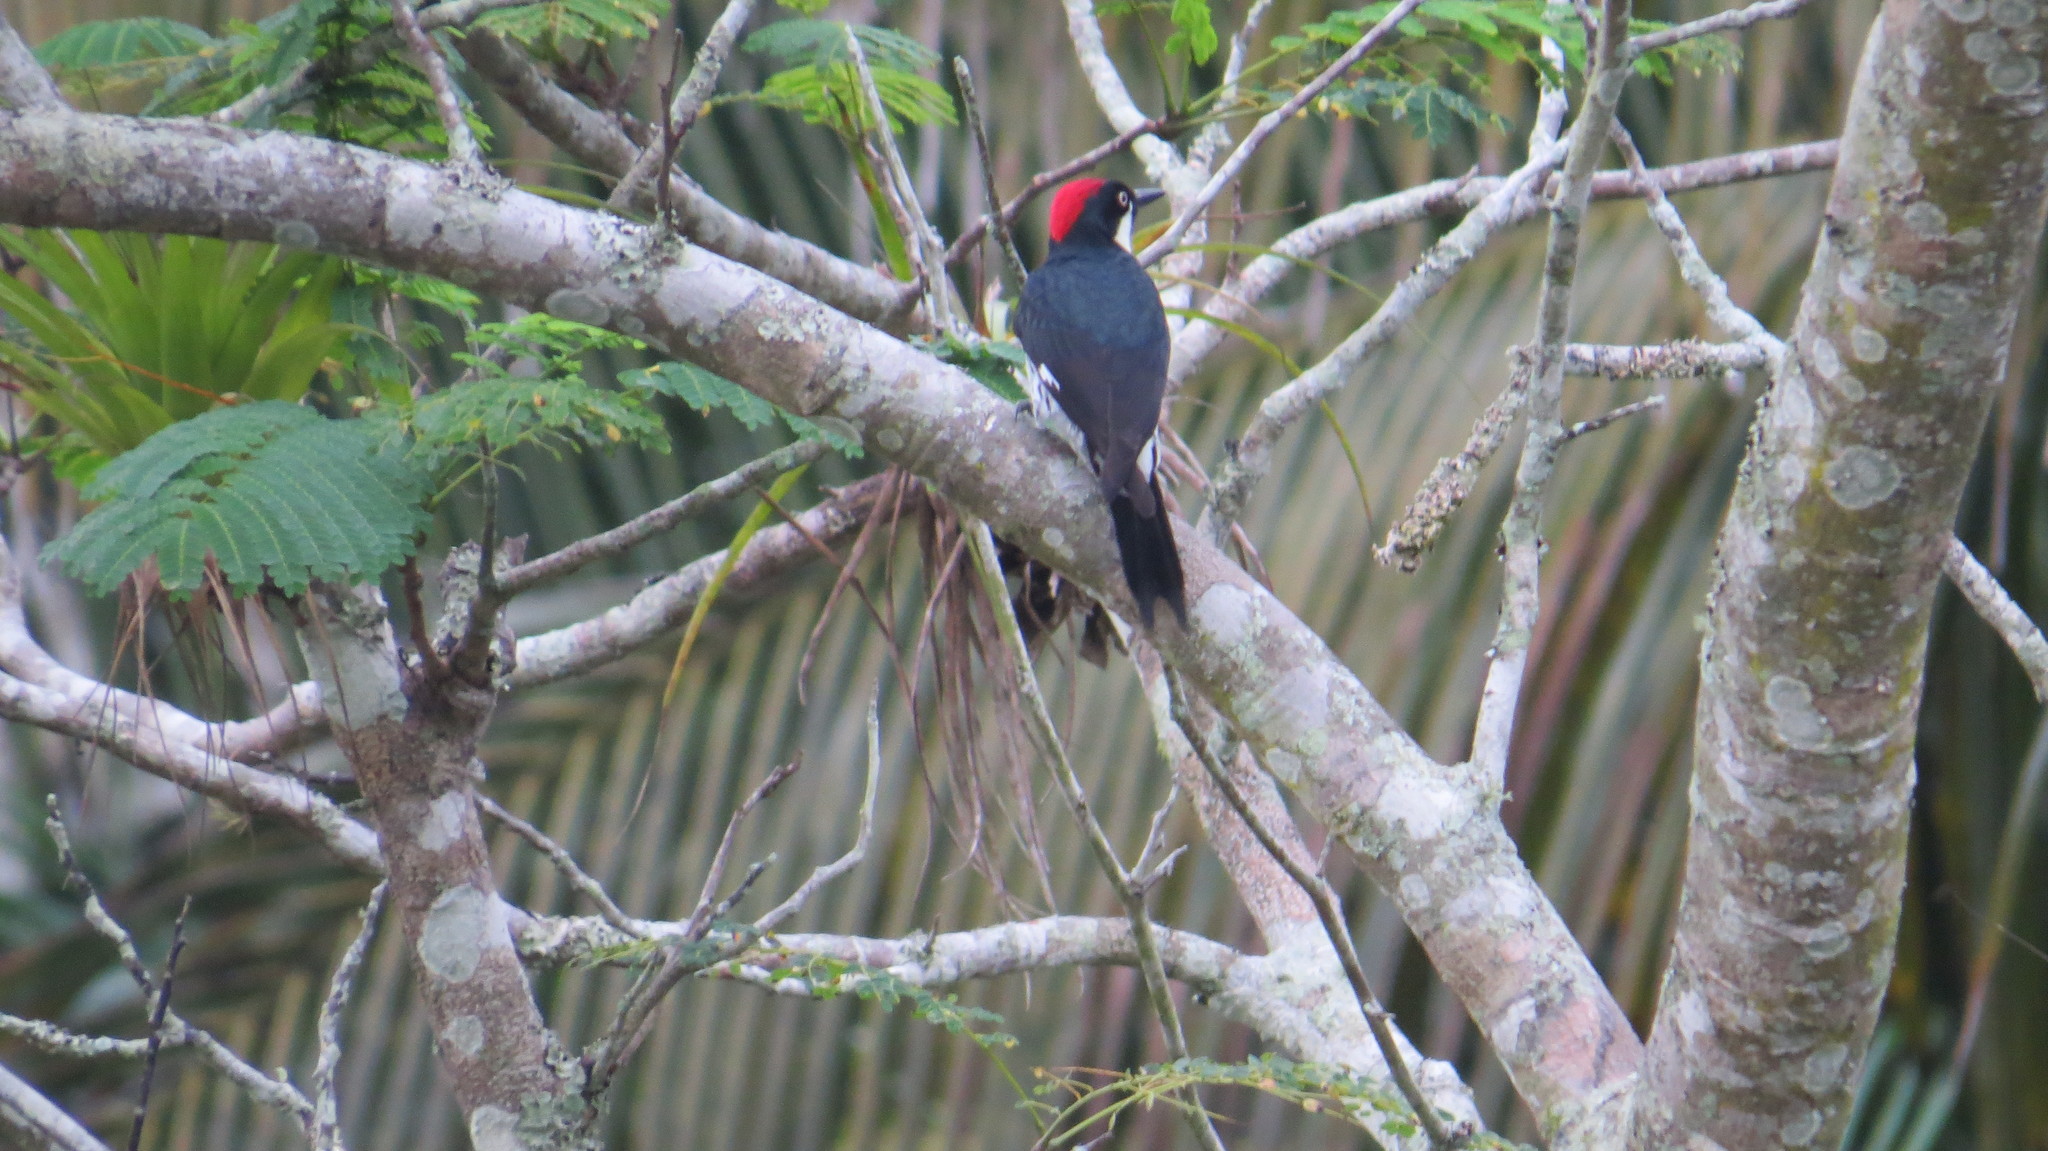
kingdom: Animalia
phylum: Chordata
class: Aves
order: Piciformes
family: Picidae
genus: Melanerpes
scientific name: Melanerpes formicivorus
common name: Acorn woodpecker
